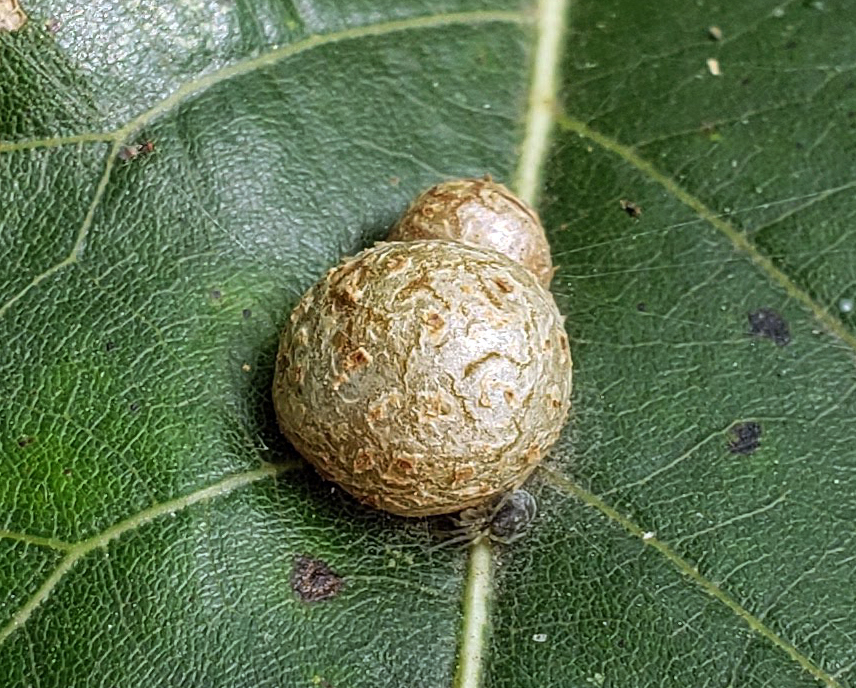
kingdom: Animalia
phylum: Arthropoda
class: Insecta
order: Diptera
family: Cecidomyiidae
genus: Polystepha
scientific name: Polystepha pilulae
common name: Oak leaf gall midge
